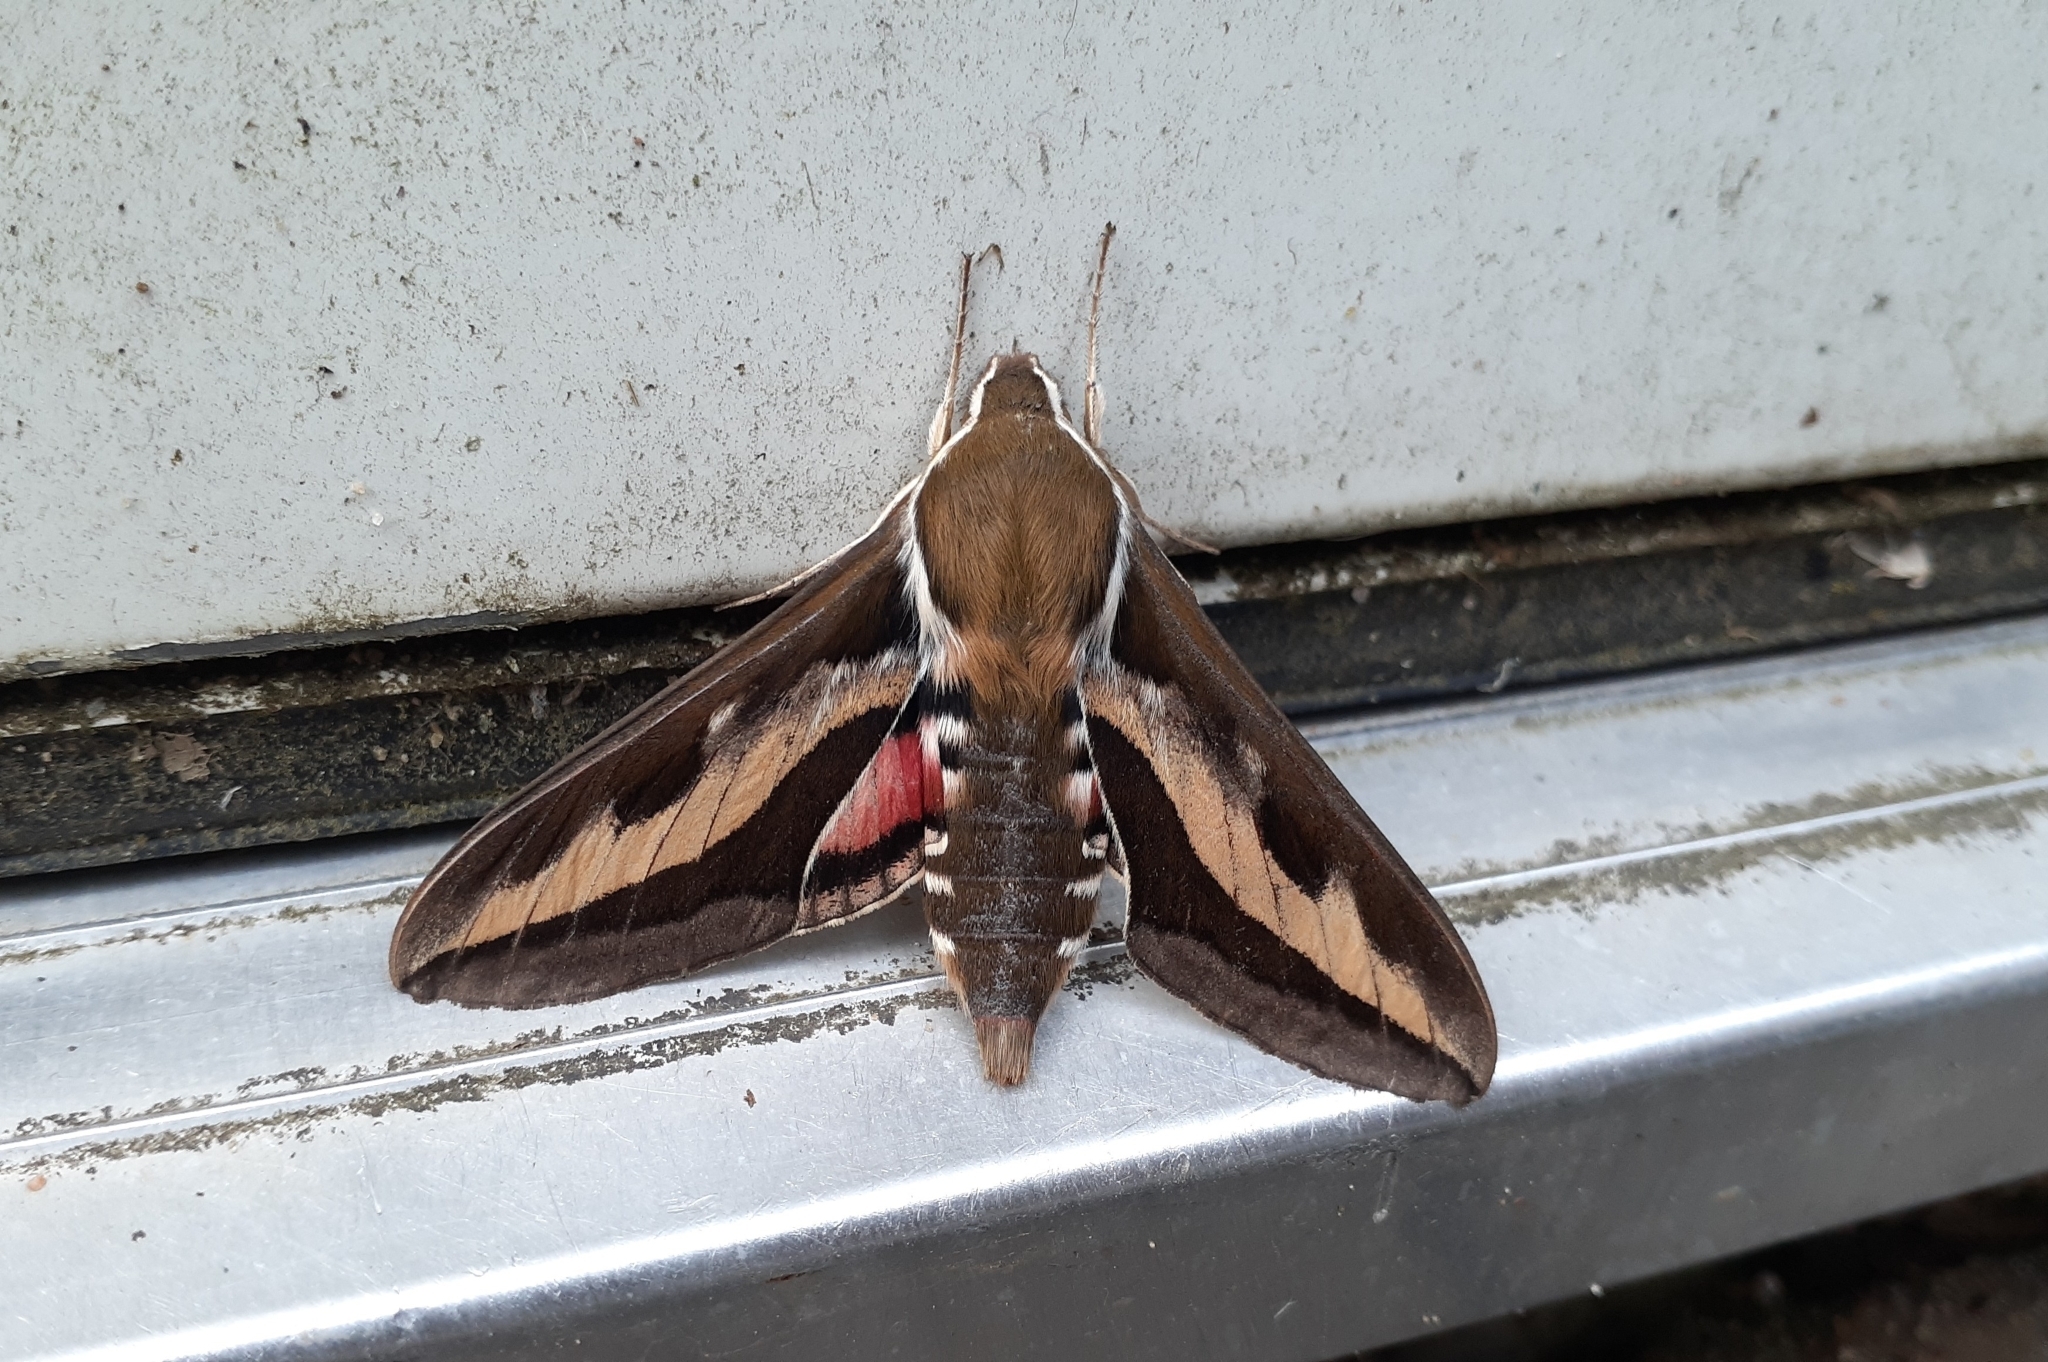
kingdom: Animalia
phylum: Arthropoda
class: Insecta
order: Lepidoptera
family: Sphingidae
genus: Hyles
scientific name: Hyles gallii
